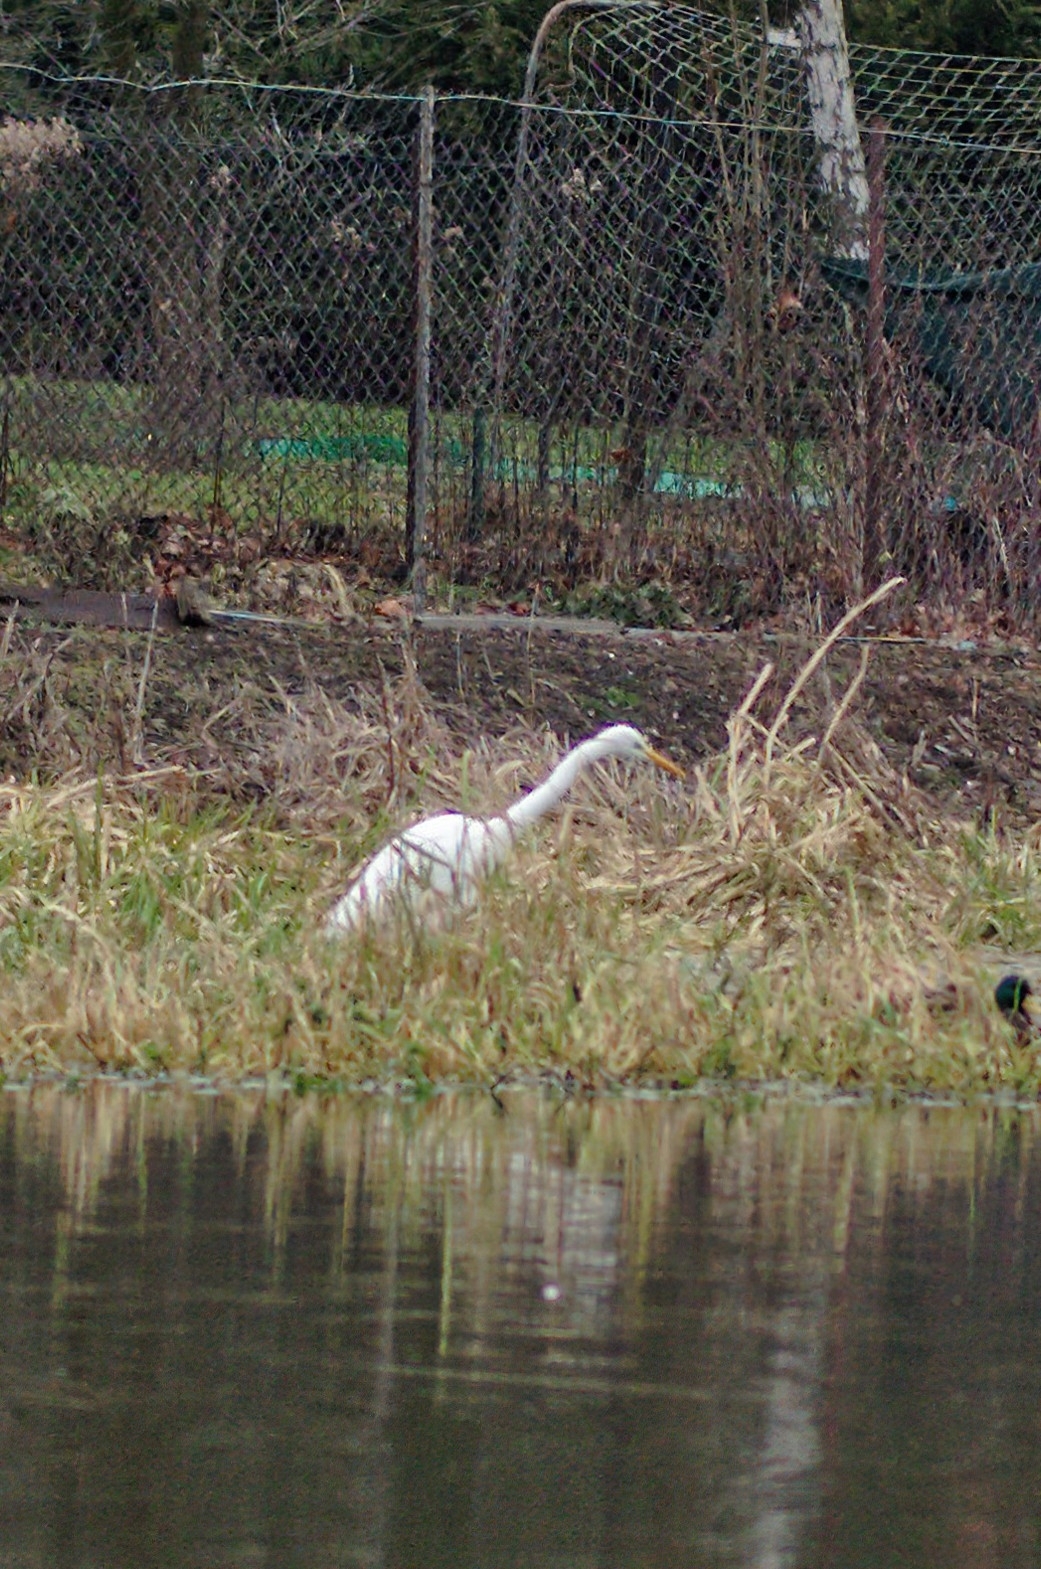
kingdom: Animalia
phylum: Chordata
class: Aves
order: Pelecaniformes
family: Ardeidae
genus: Ardea
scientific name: Ardea alba
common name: Great egret
